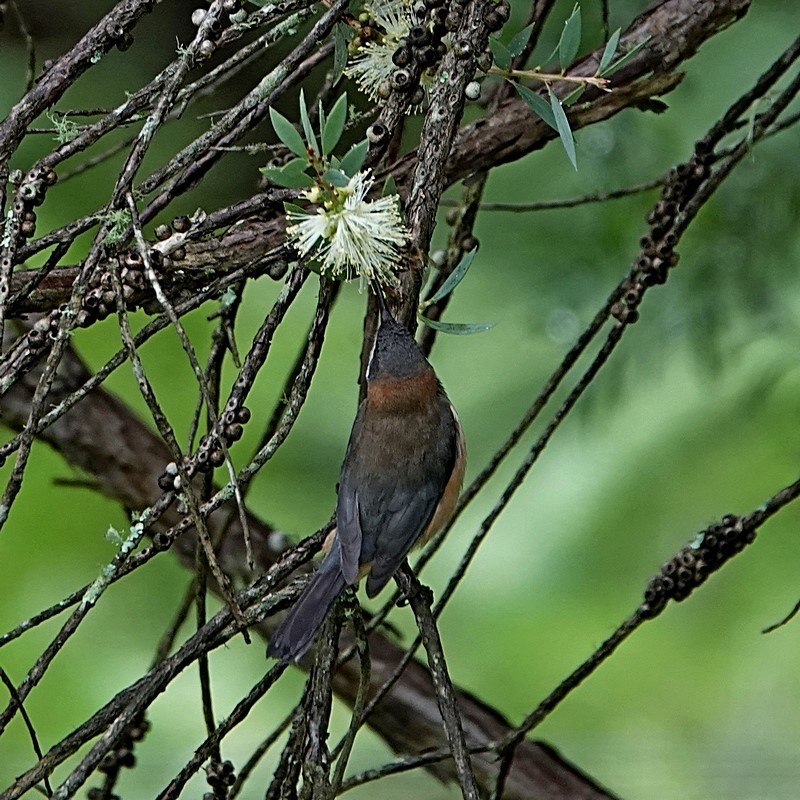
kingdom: Animalia
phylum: Chordata
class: Aves
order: Passeriformes
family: Meliphagidae
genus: Acanthorhynchus
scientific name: Acanthorhynchus tenuirostris
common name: Eastern spinebill
